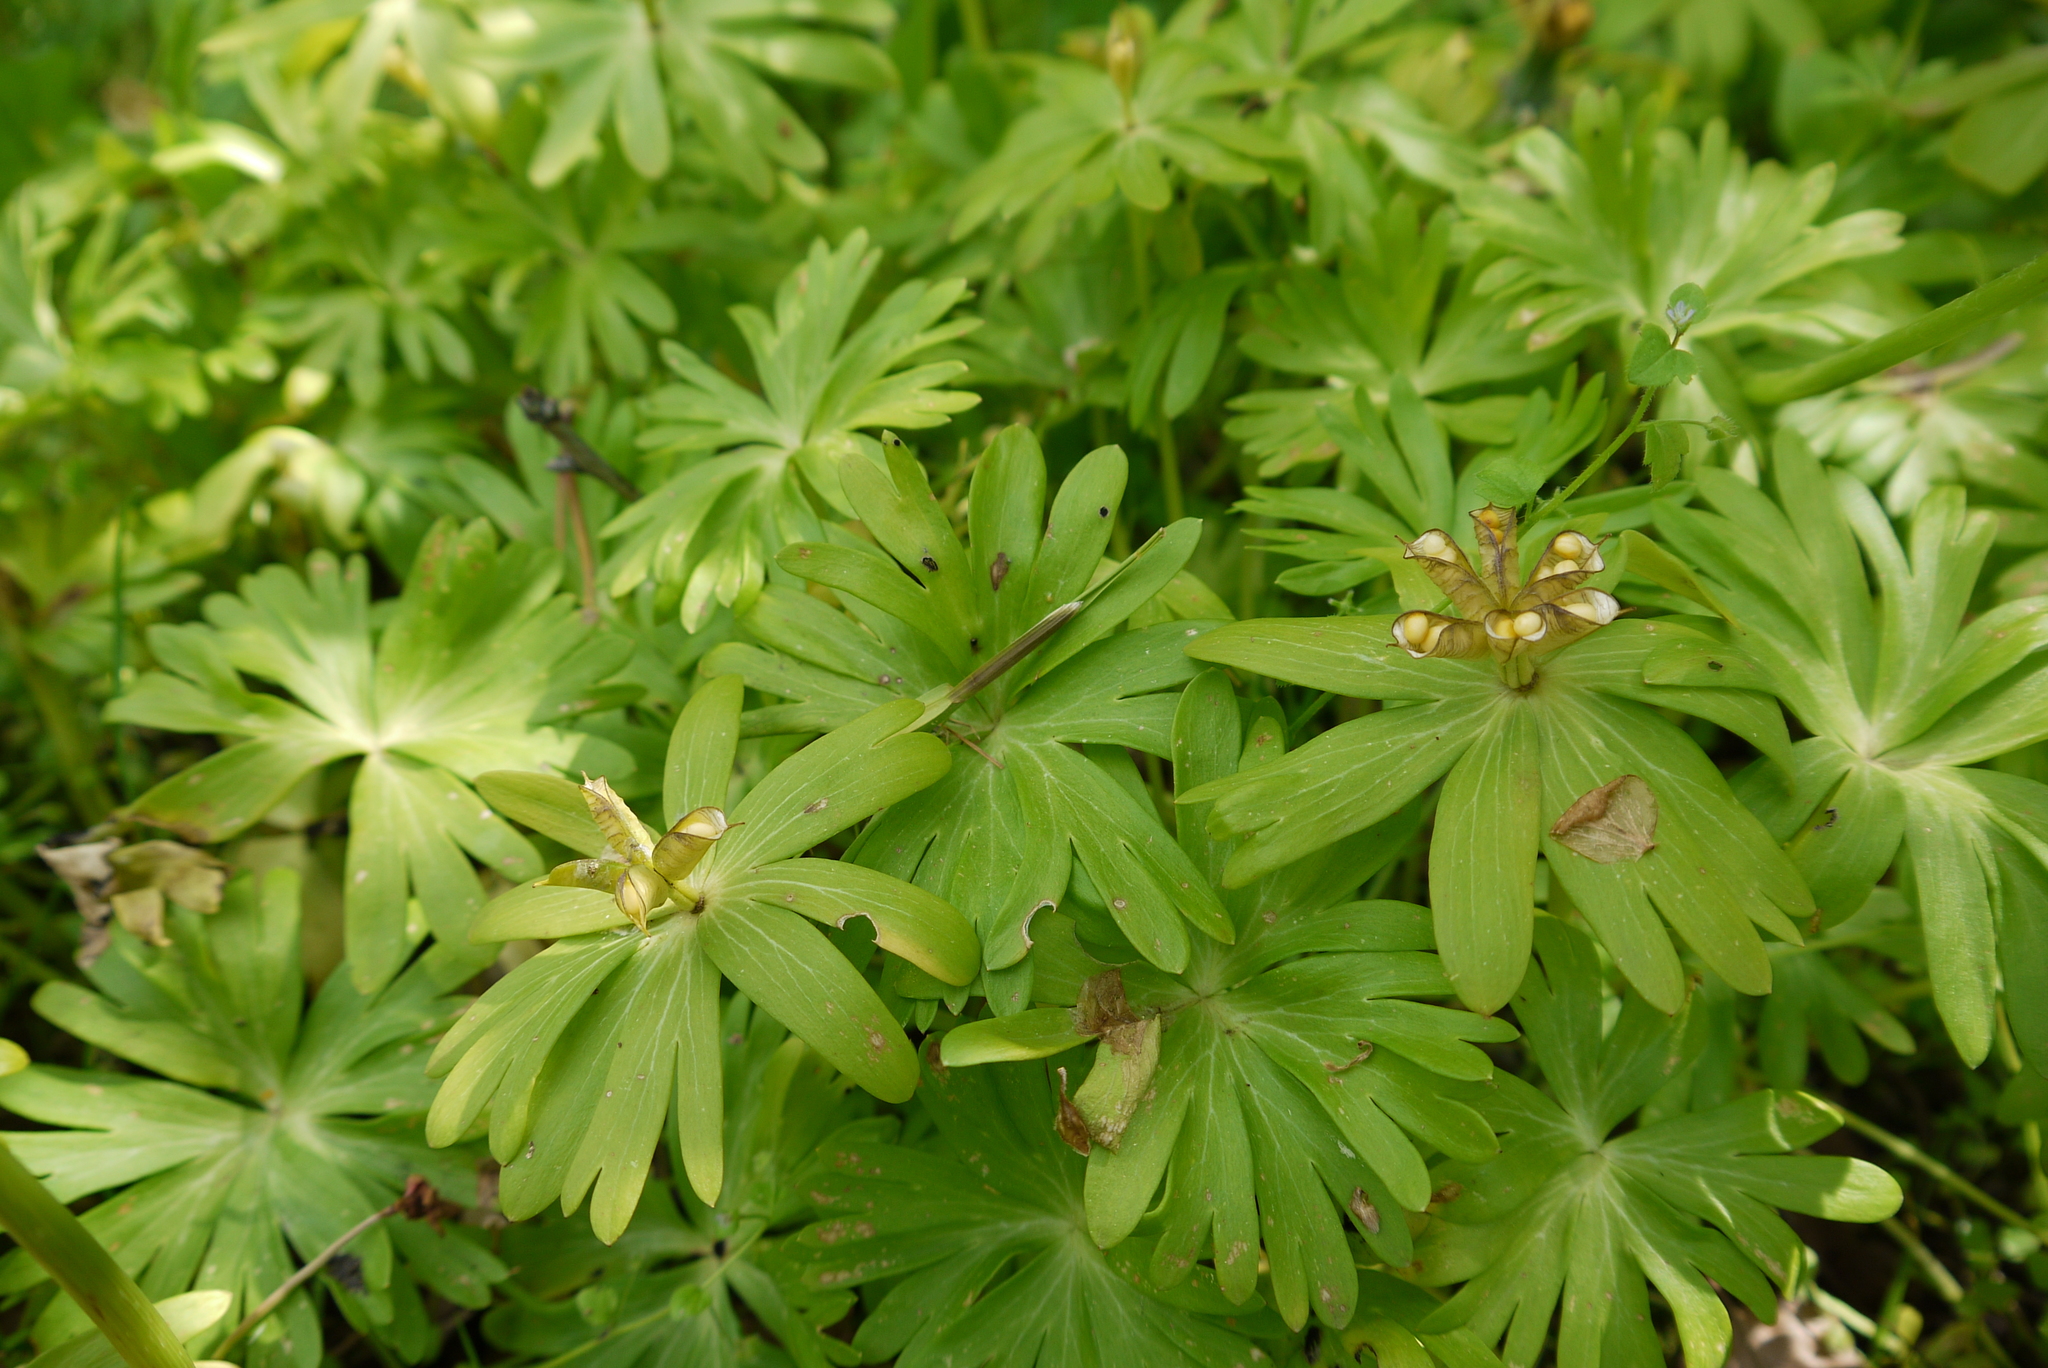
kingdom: Plantae
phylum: Tracheophyta
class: Magnoliopsida
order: Ranunculales
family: Ranunculaceae
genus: Eranthis
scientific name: Eranthis hyemalis
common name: Winter aconite
